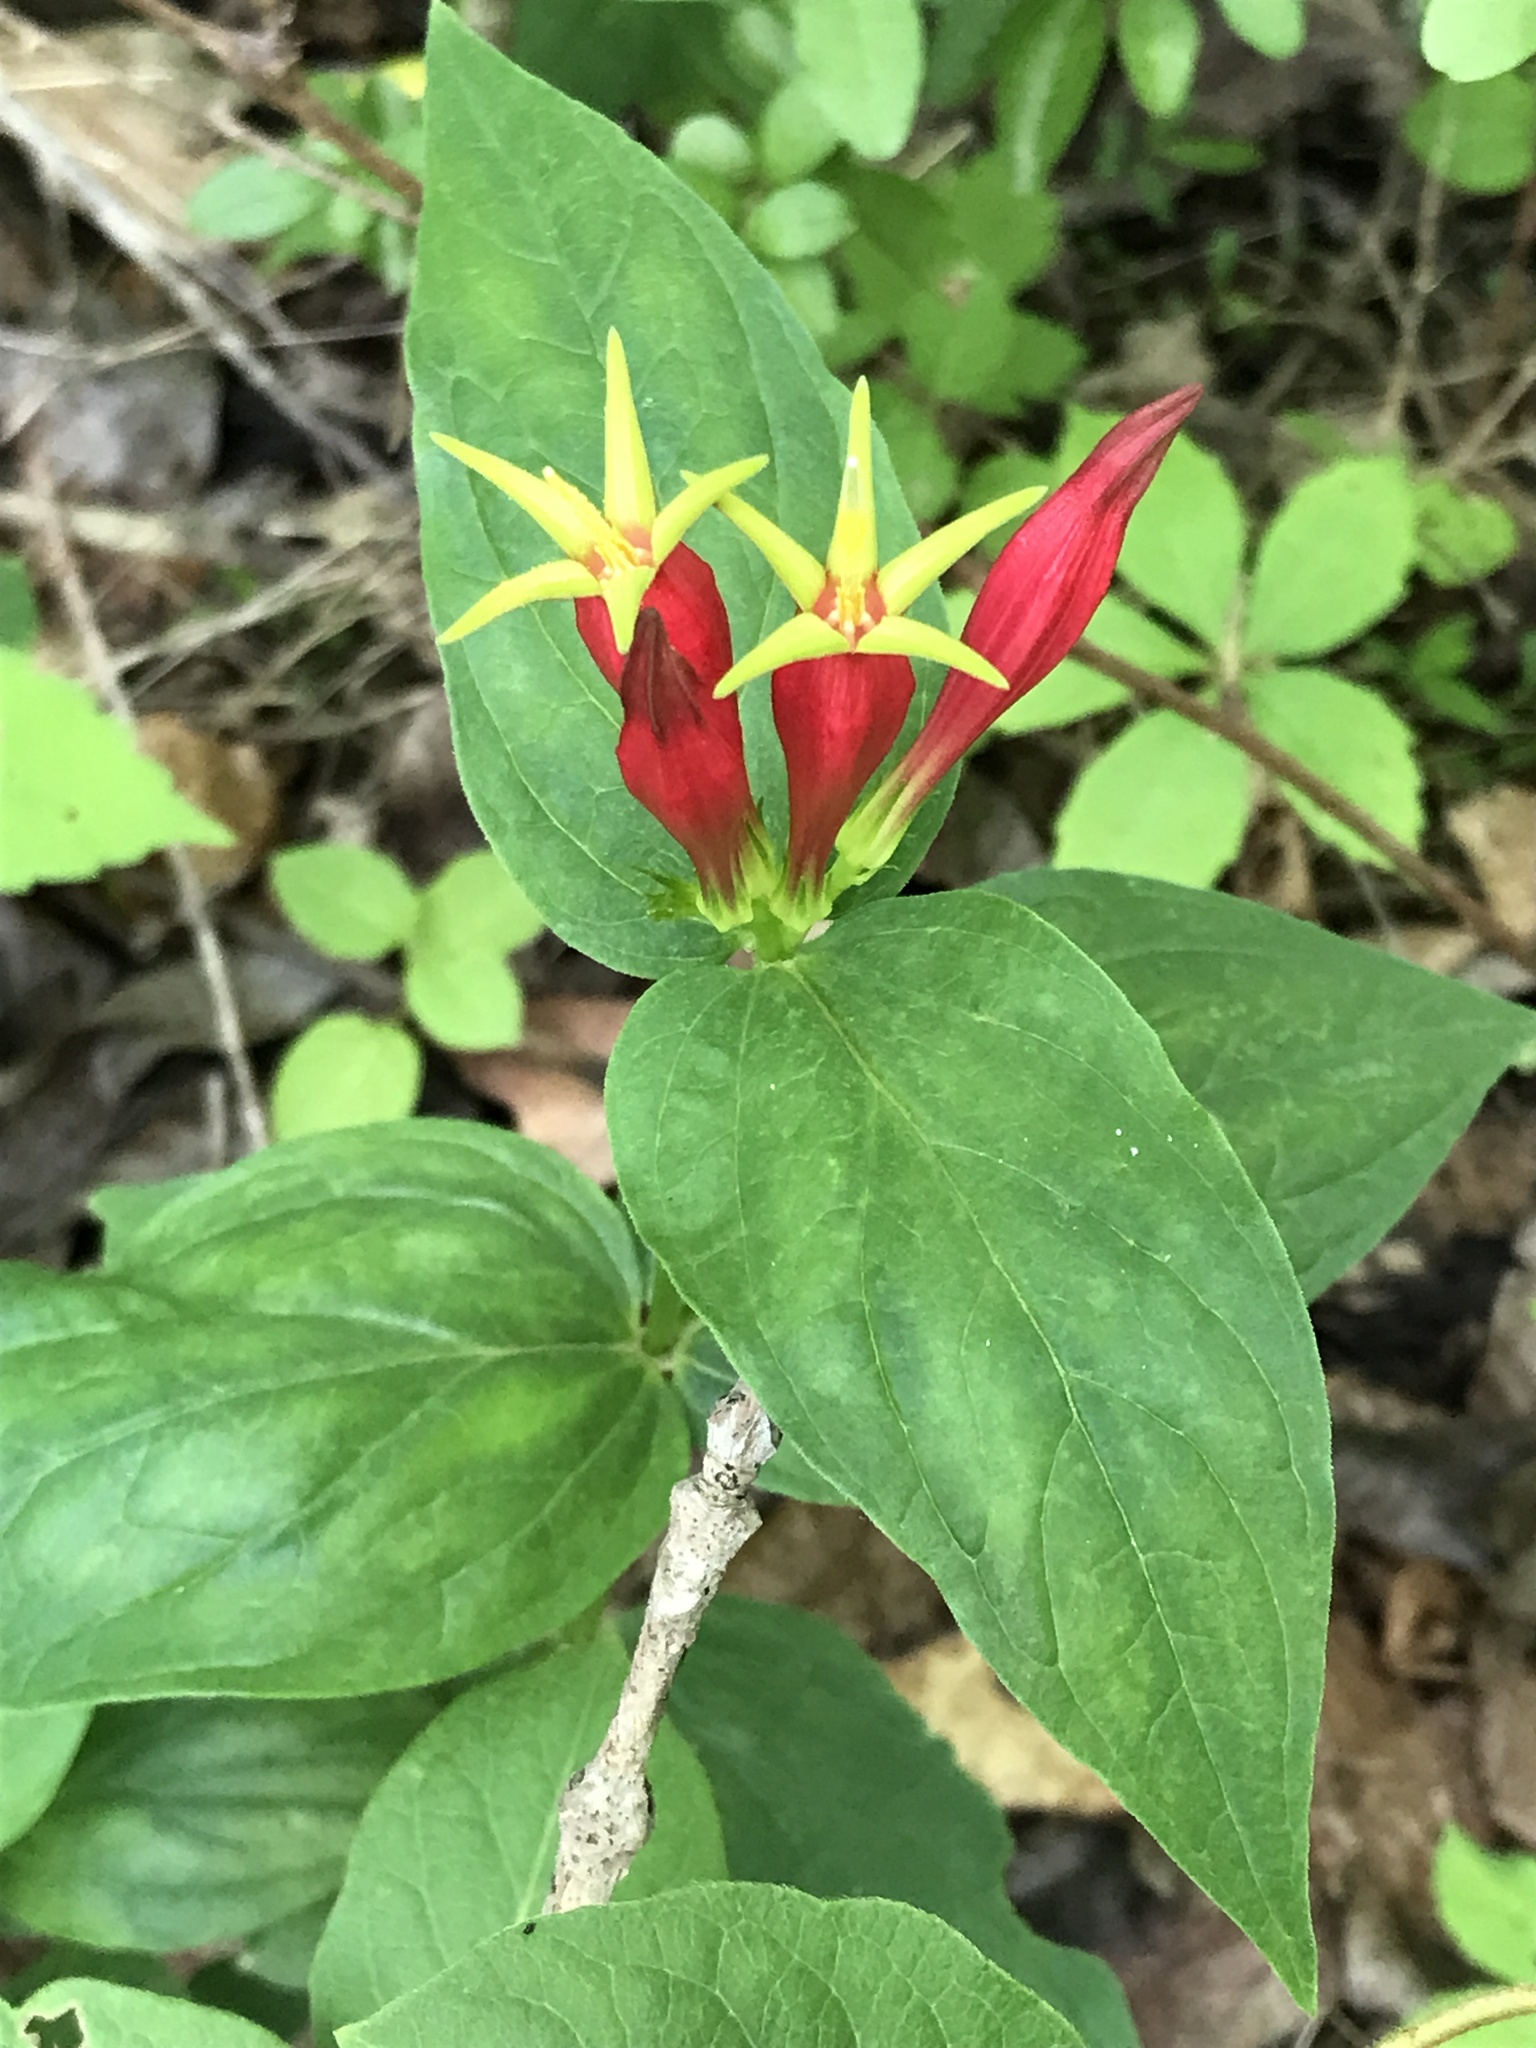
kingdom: Plantae
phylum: Tracheophyta
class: Magnoliopsida
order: Gentianales
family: Loganiaceae
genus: Spigelia
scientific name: Spigelia marilandica
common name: Indian-pink
